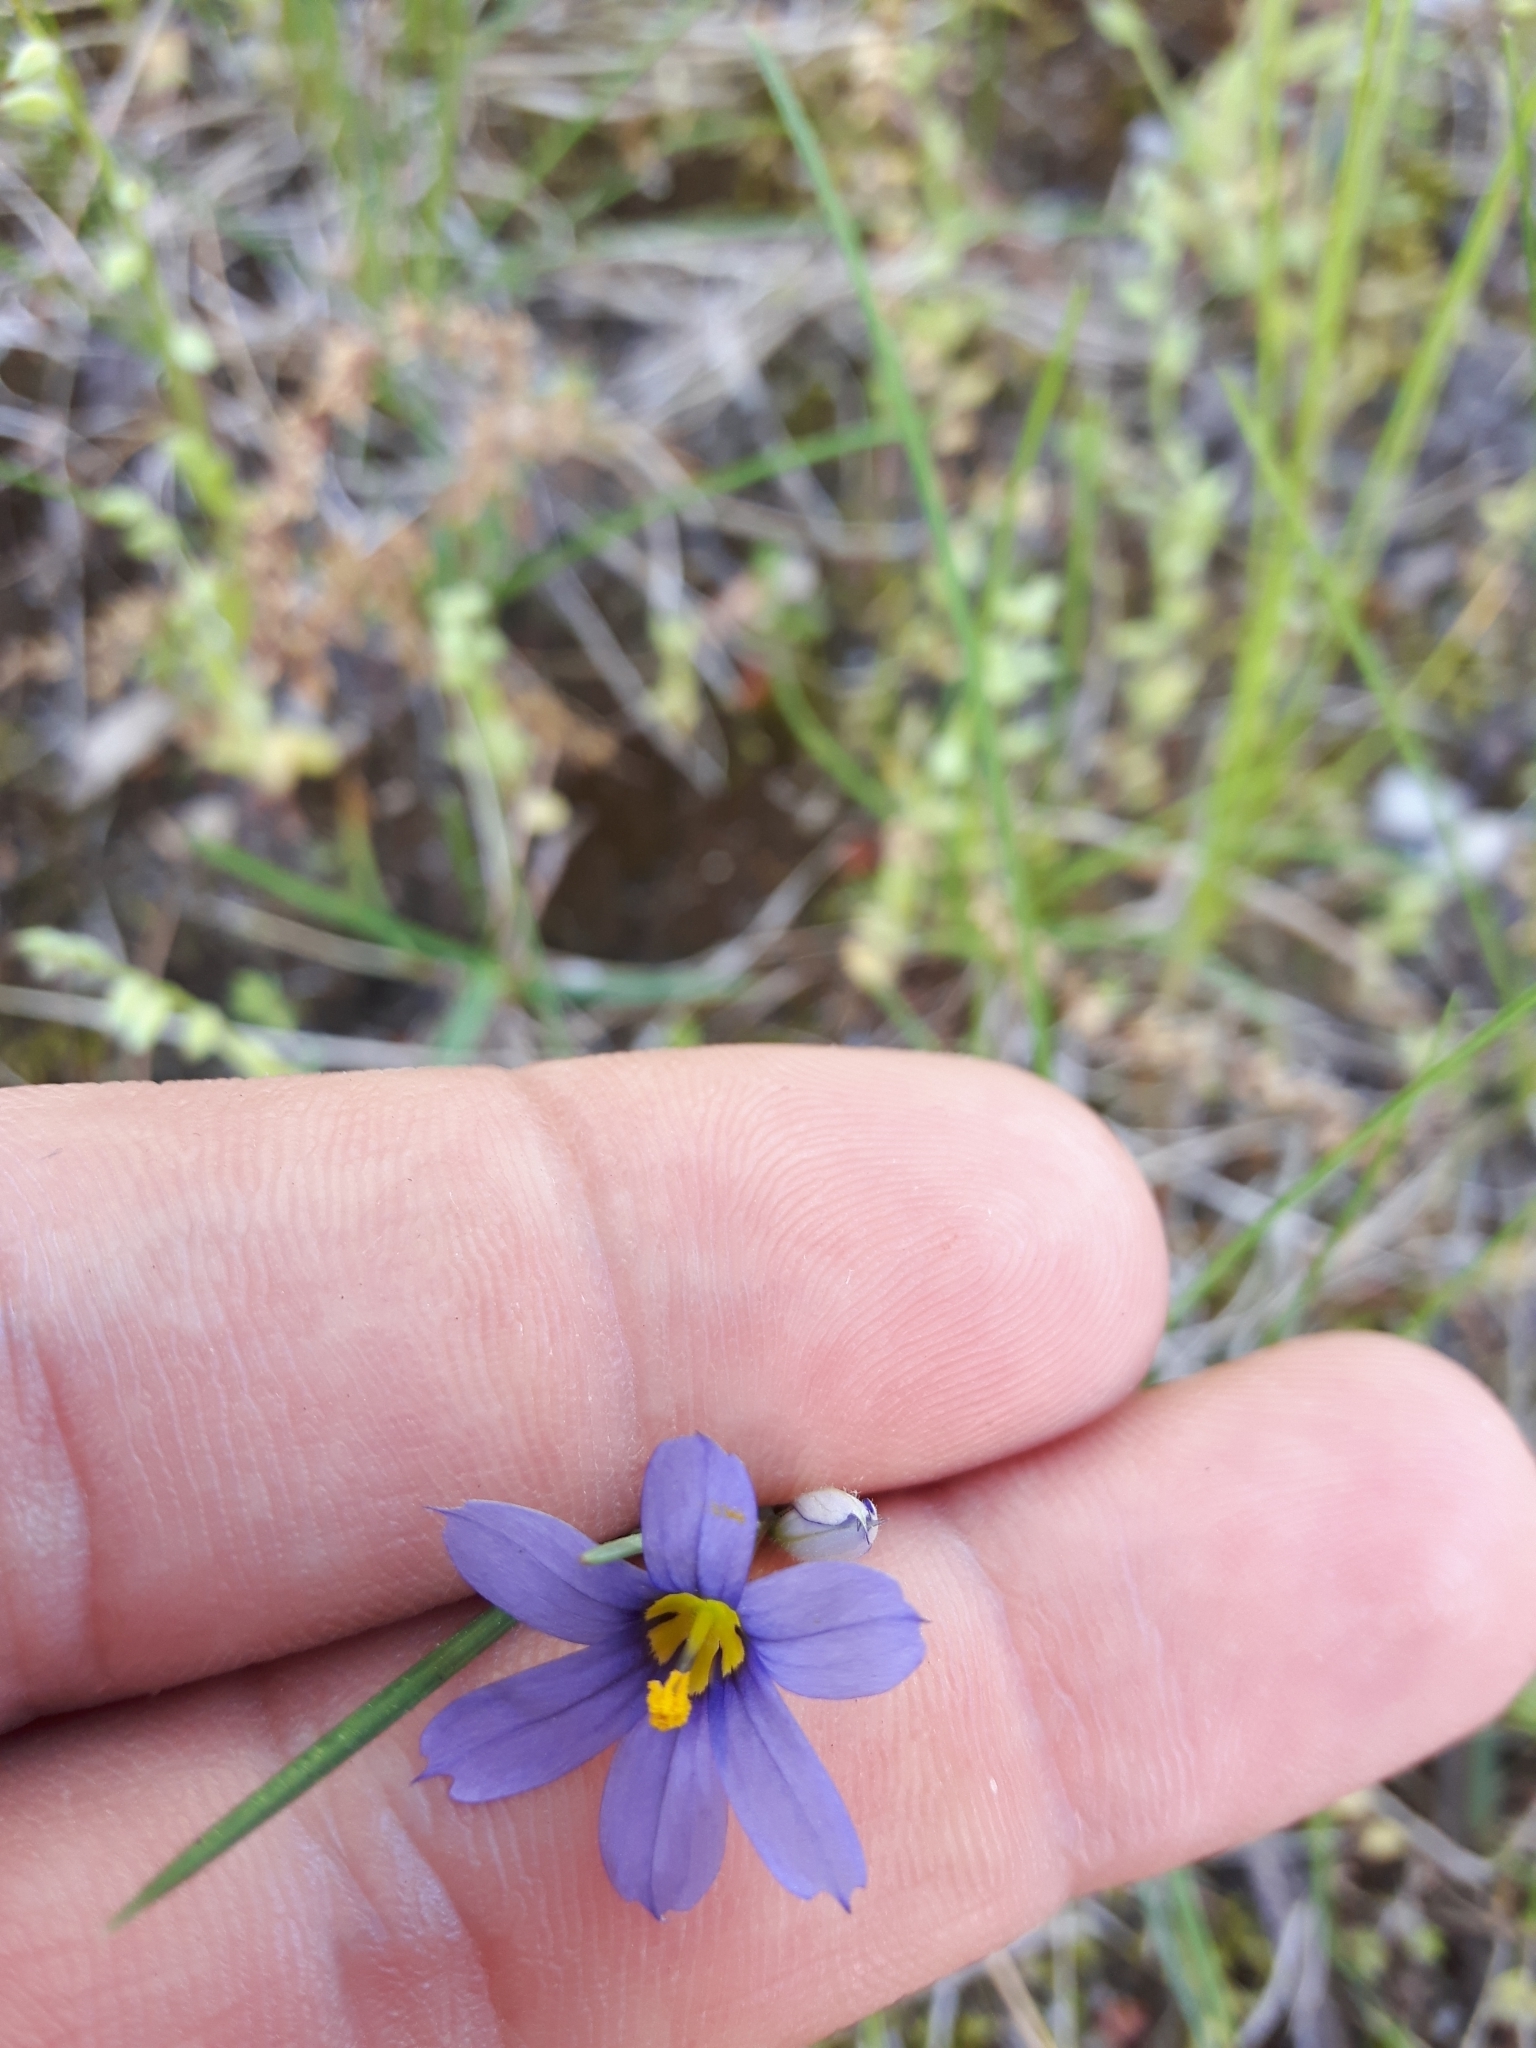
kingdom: Plantae
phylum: Tracheophyta
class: Liliopsida
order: Asparagales
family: Iridaceae
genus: Sisyrinchium
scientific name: Sisyrinchium montanum
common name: American blue-eyed-grass
